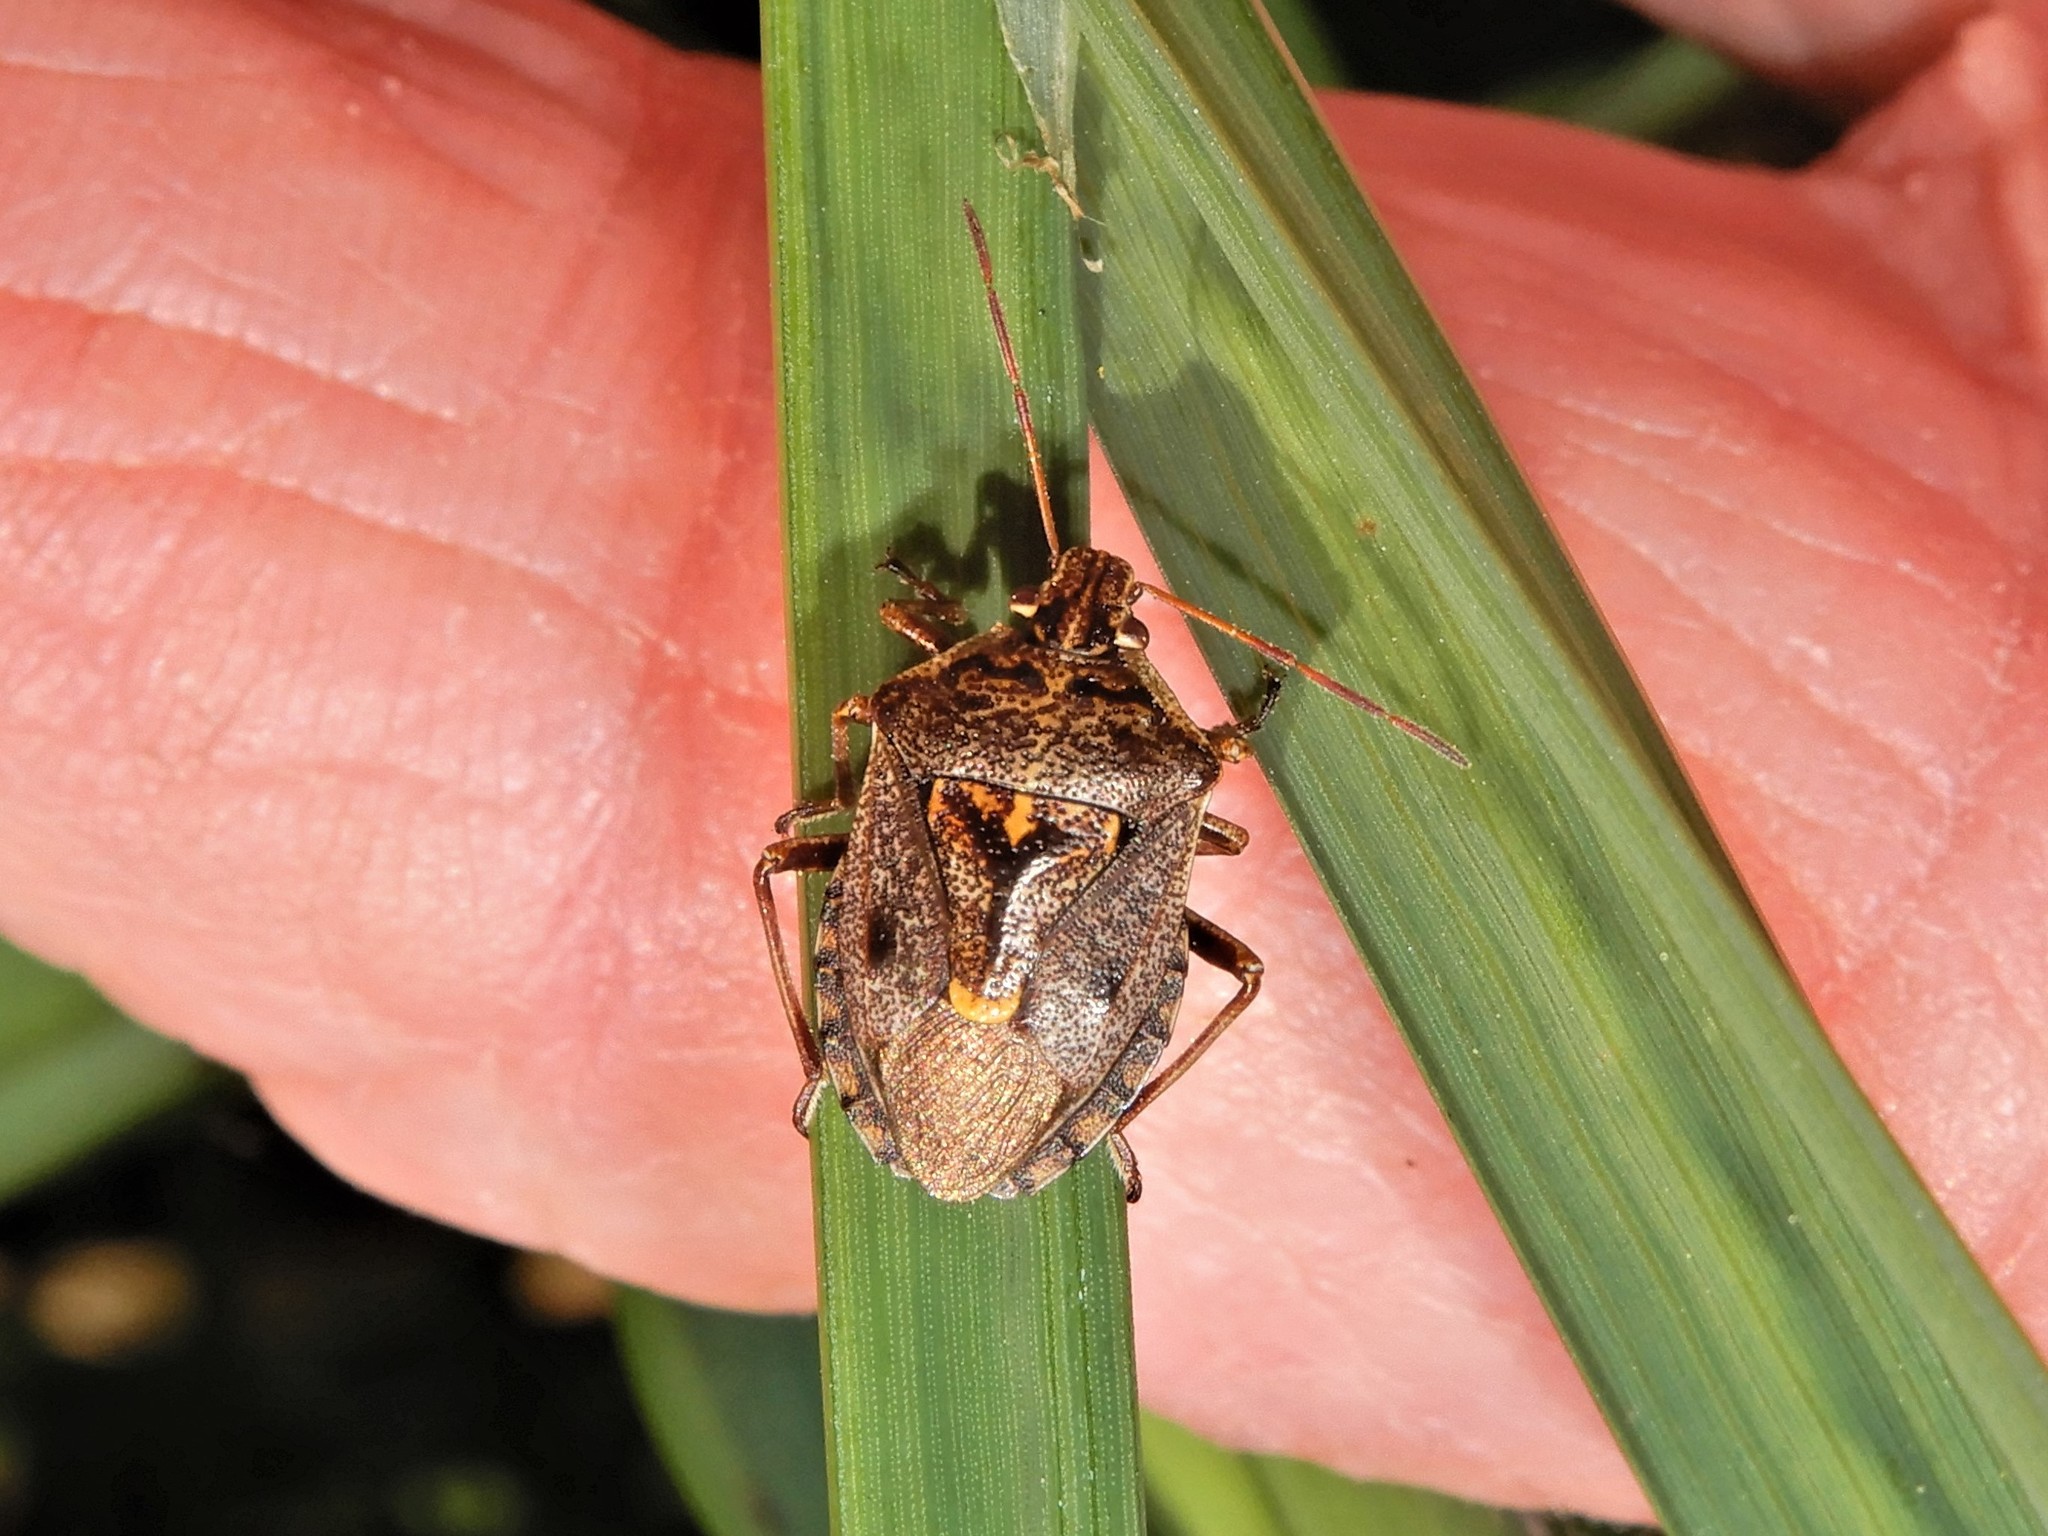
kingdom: Animalia
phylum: Arthropoda
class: Insecta
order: Hemiptera
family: Pentatomidae
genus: Cermatulus
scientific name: Cermatulus nasalis
